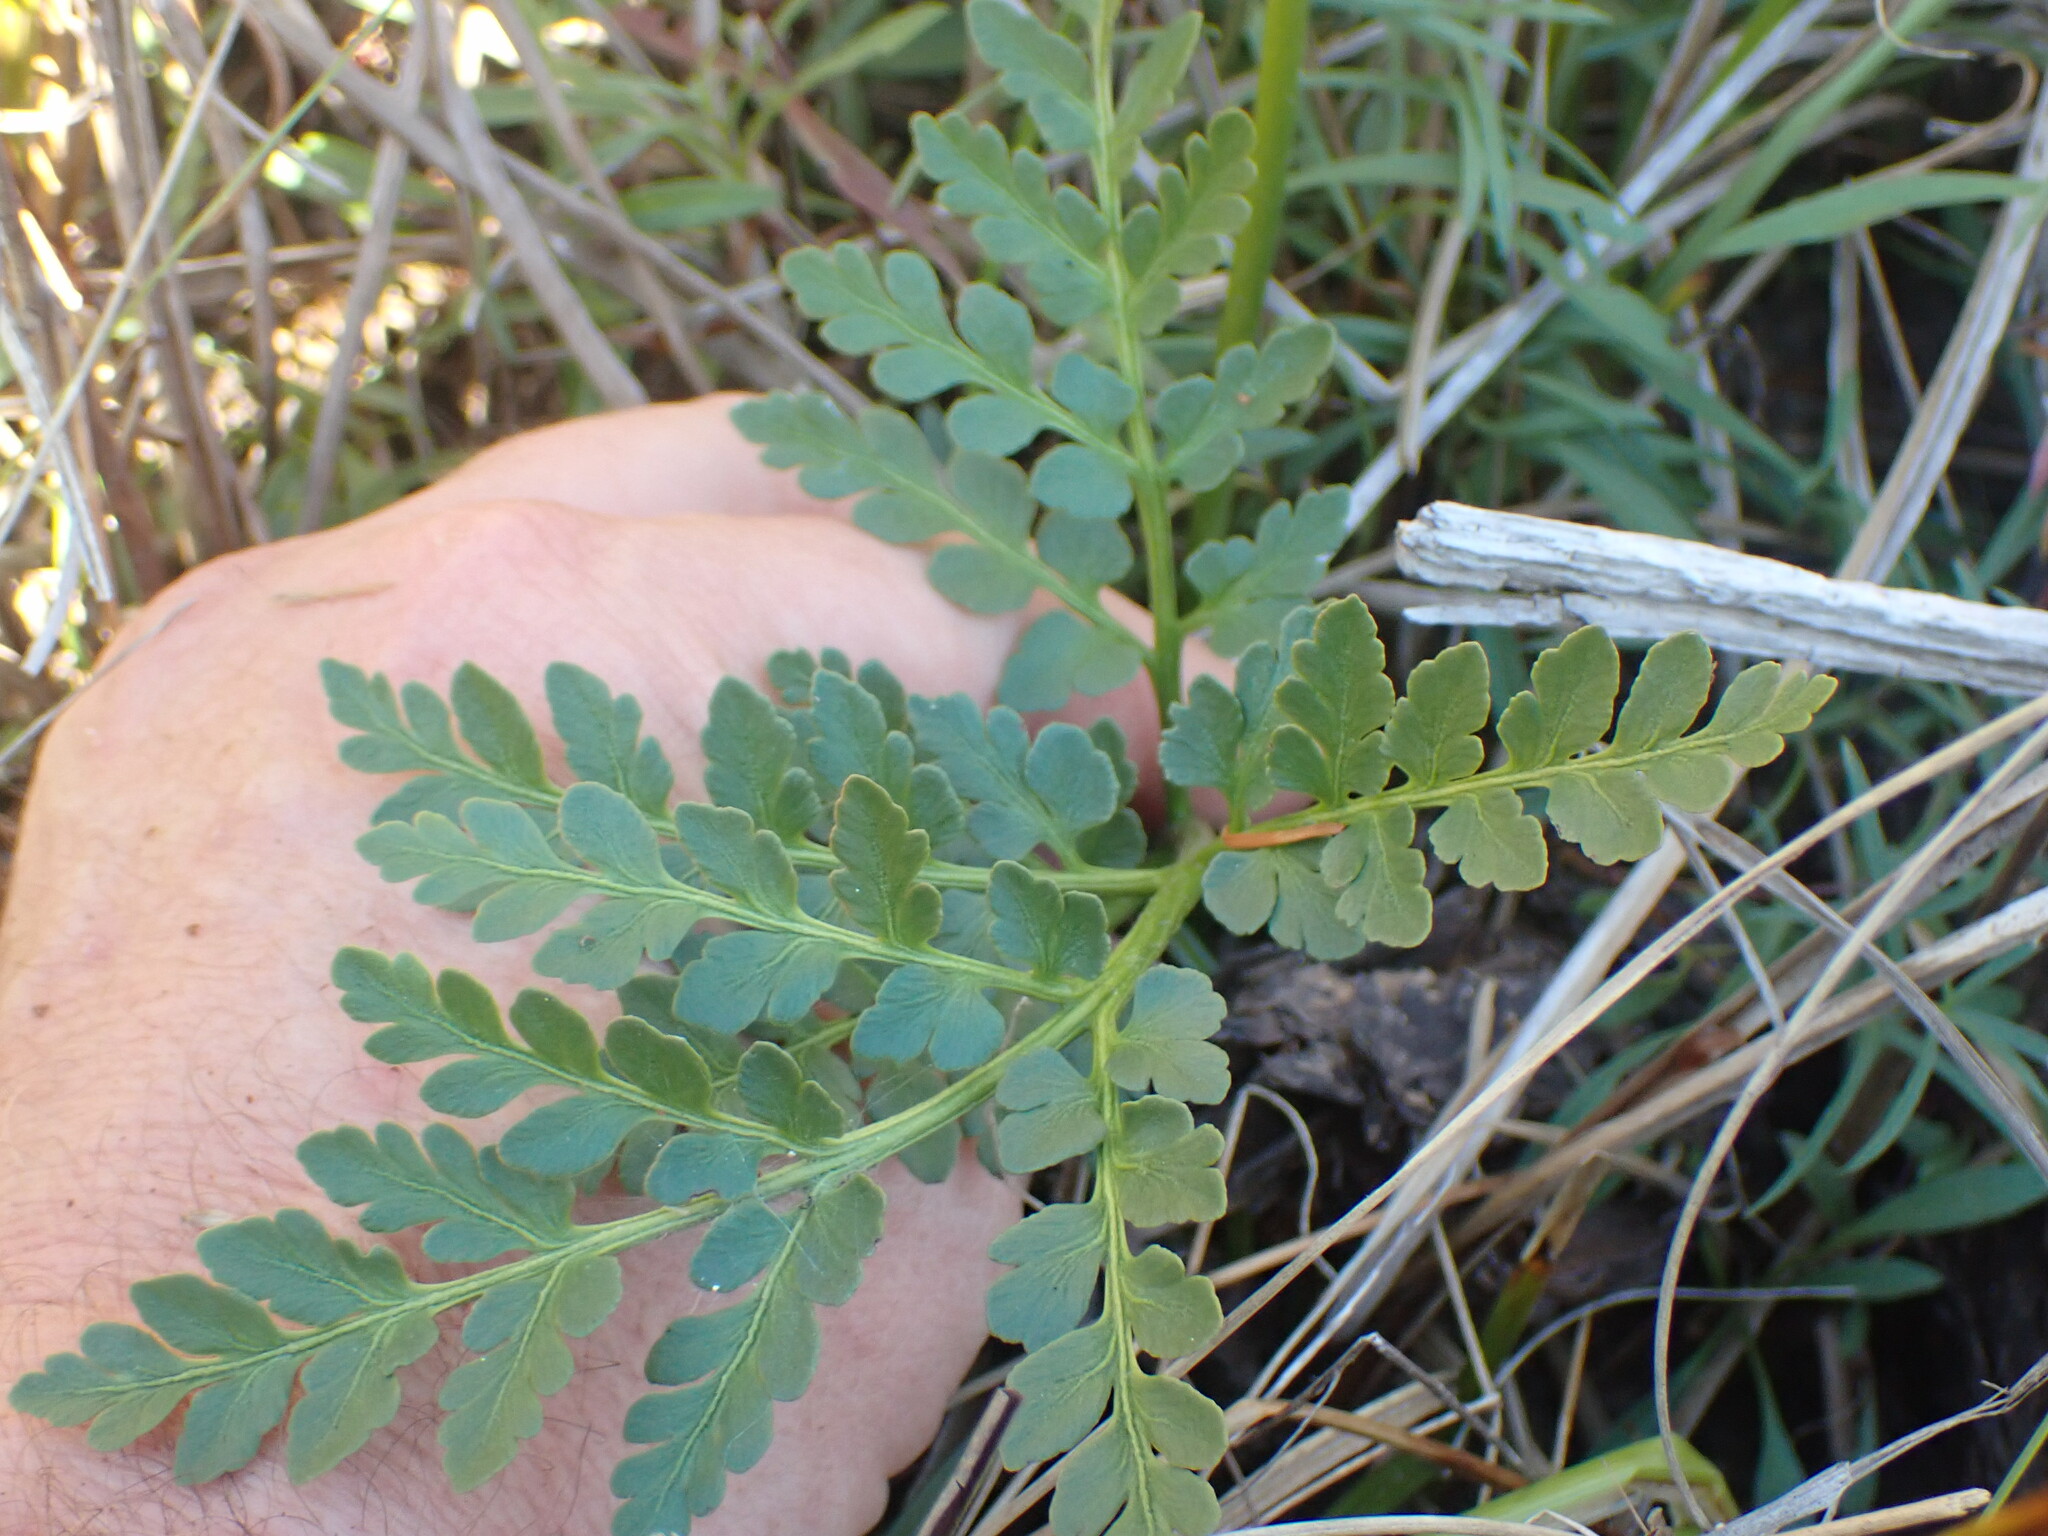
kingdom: Plantae
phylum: Tracheophyta
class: Polypodiopsida
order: Ophioglossales
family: Ophioglossaceae
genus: Sceptridium
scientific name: Sceptridium multifidum
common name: Leathery grape fern
